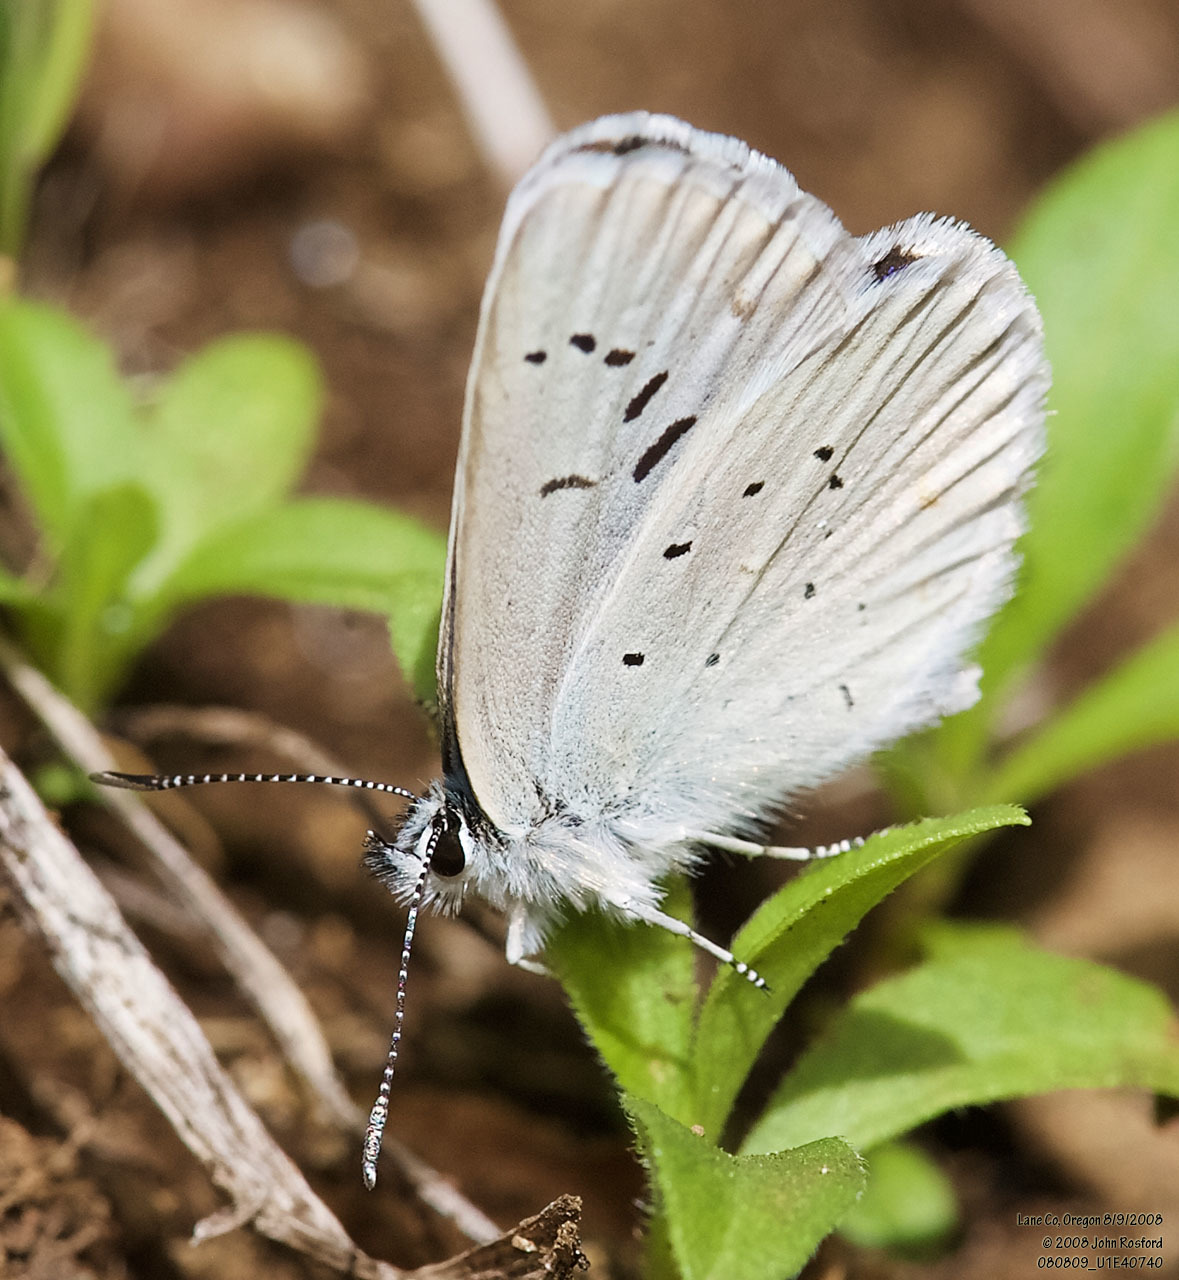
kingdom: Animalia
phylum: Arthropoda
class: Insecta
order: Lepidoptera
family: Lycaenidae
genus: Lycaeides
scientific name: Lycaeides anna
